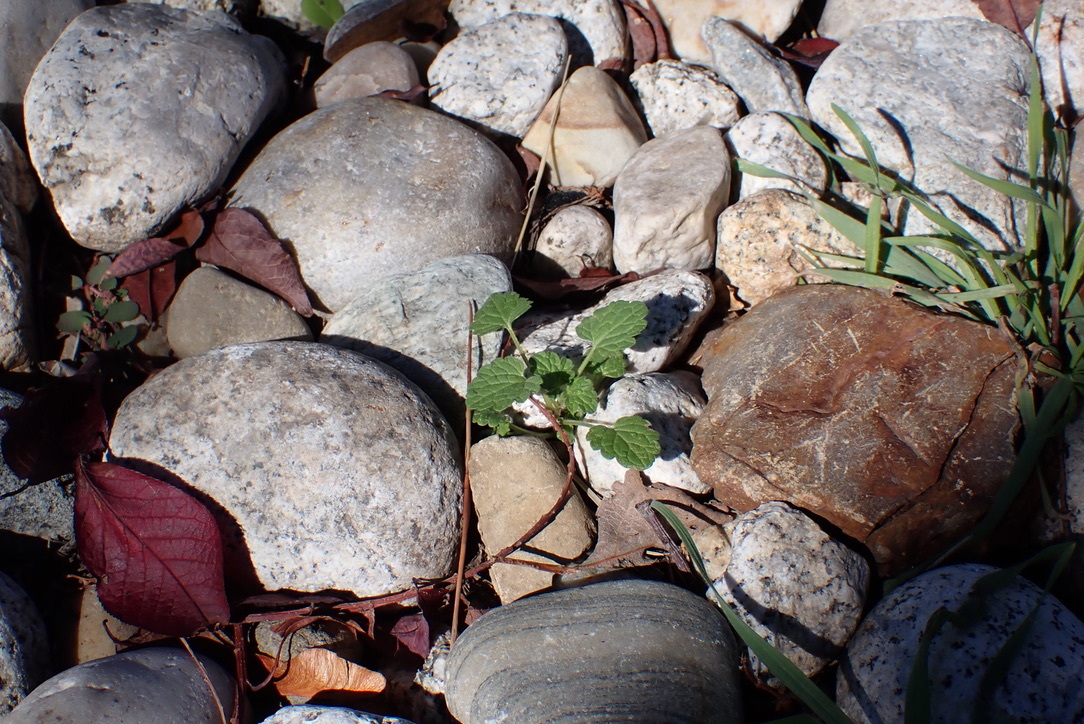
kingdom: Plantae
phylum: Tracheophyta
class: Magnoliopsida
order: Lamiales
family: Lamiaceae
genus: Lamium
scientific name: Lamium amplexicaule
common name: Henbit dead-nettle
